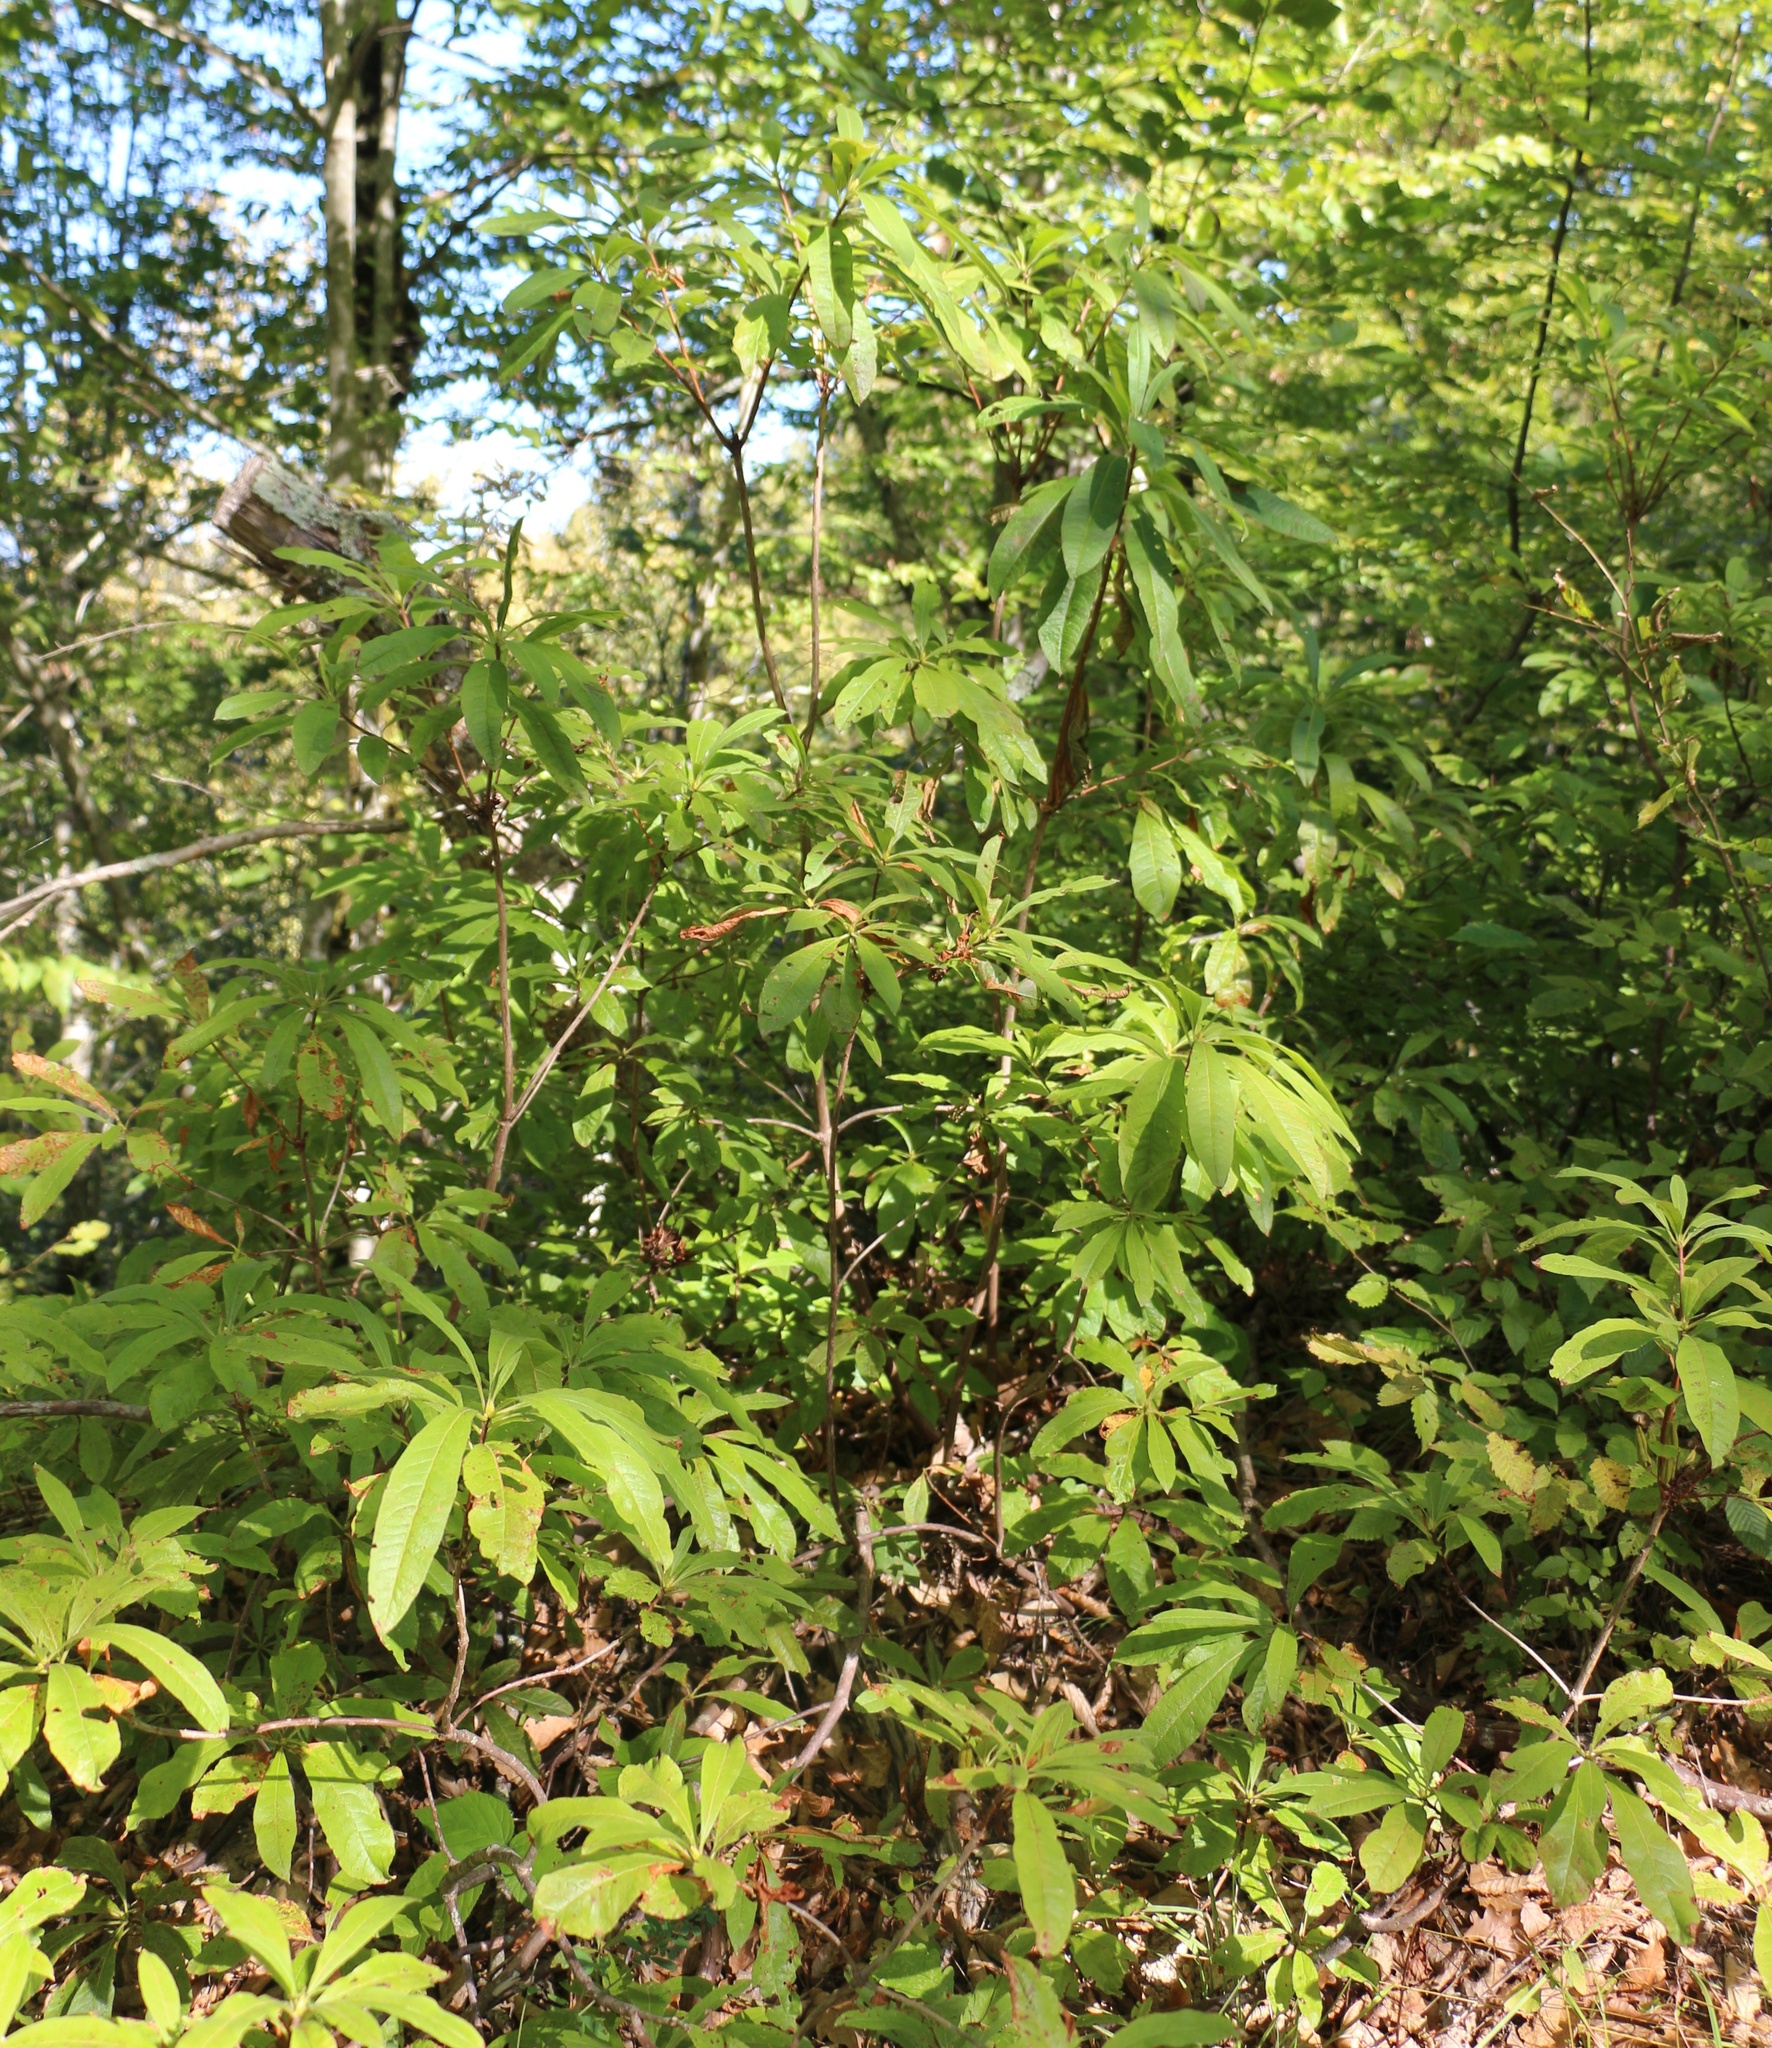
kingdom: Plantae
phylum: Tracheophyta
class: Magnoliopsida
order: Ericales
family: Ericaceae
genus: Rhododendron
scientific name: Rhododendron luteum
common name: Yellow azalea
